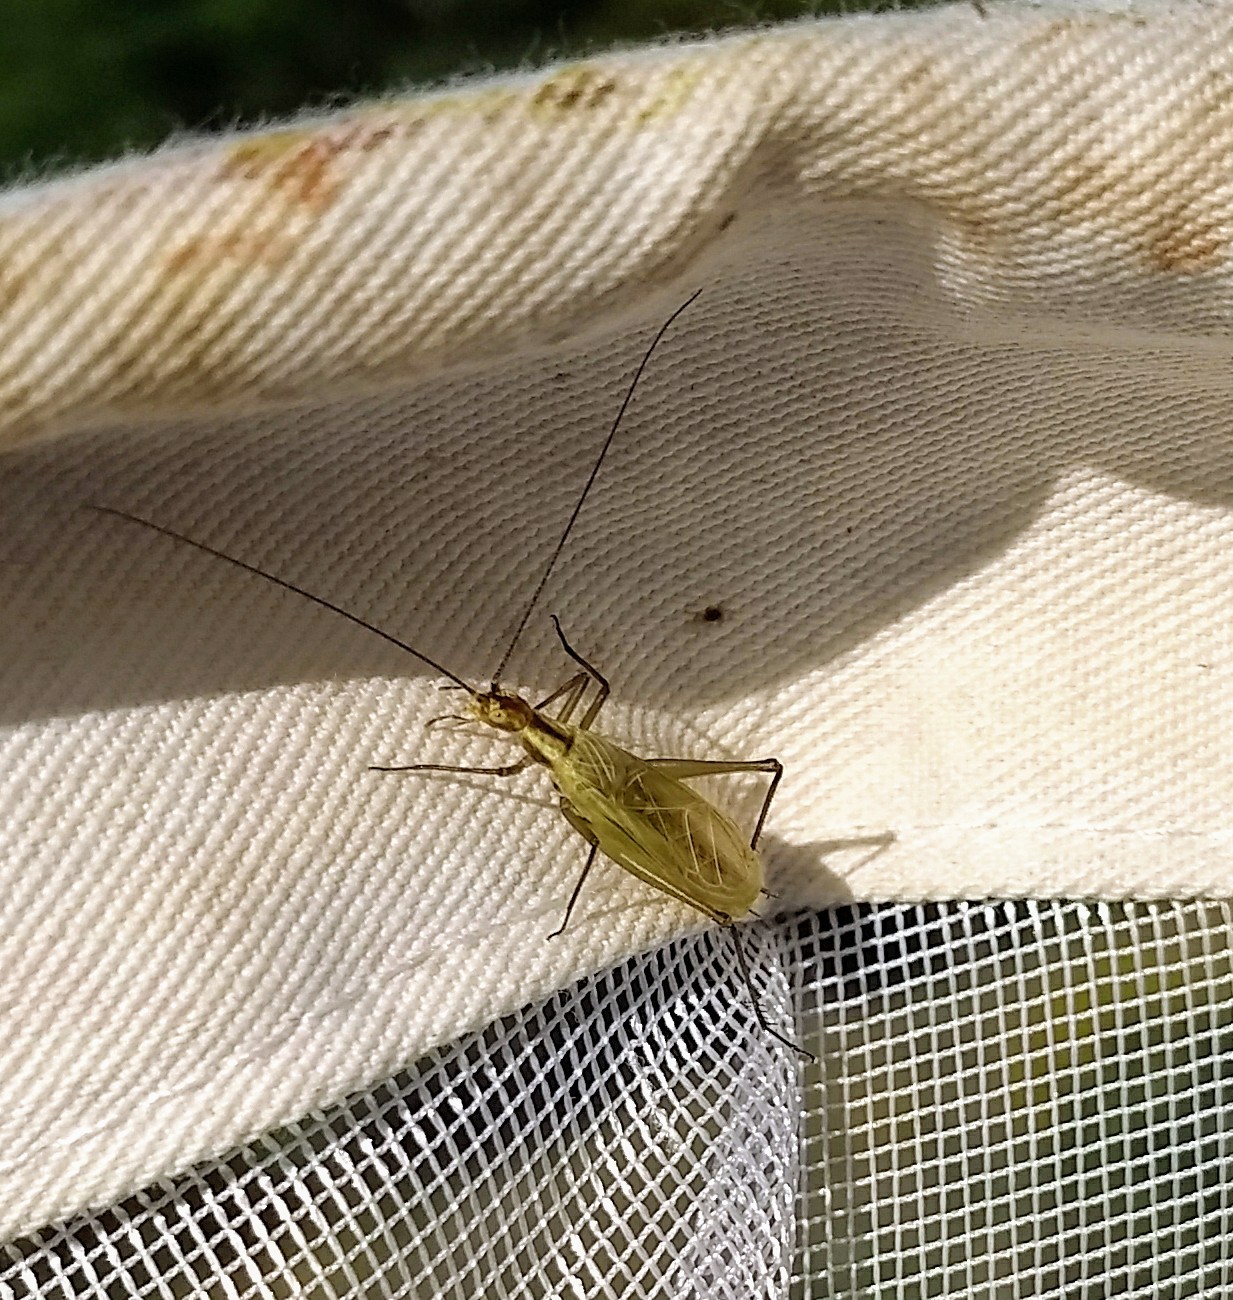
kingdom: Animalia
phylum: Arthropoda
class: Insecta
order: Orthoptera
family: Gryllidae
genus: Oecanthus
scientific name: Oecanthus nigricornis
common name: Black-horned tree cricket
